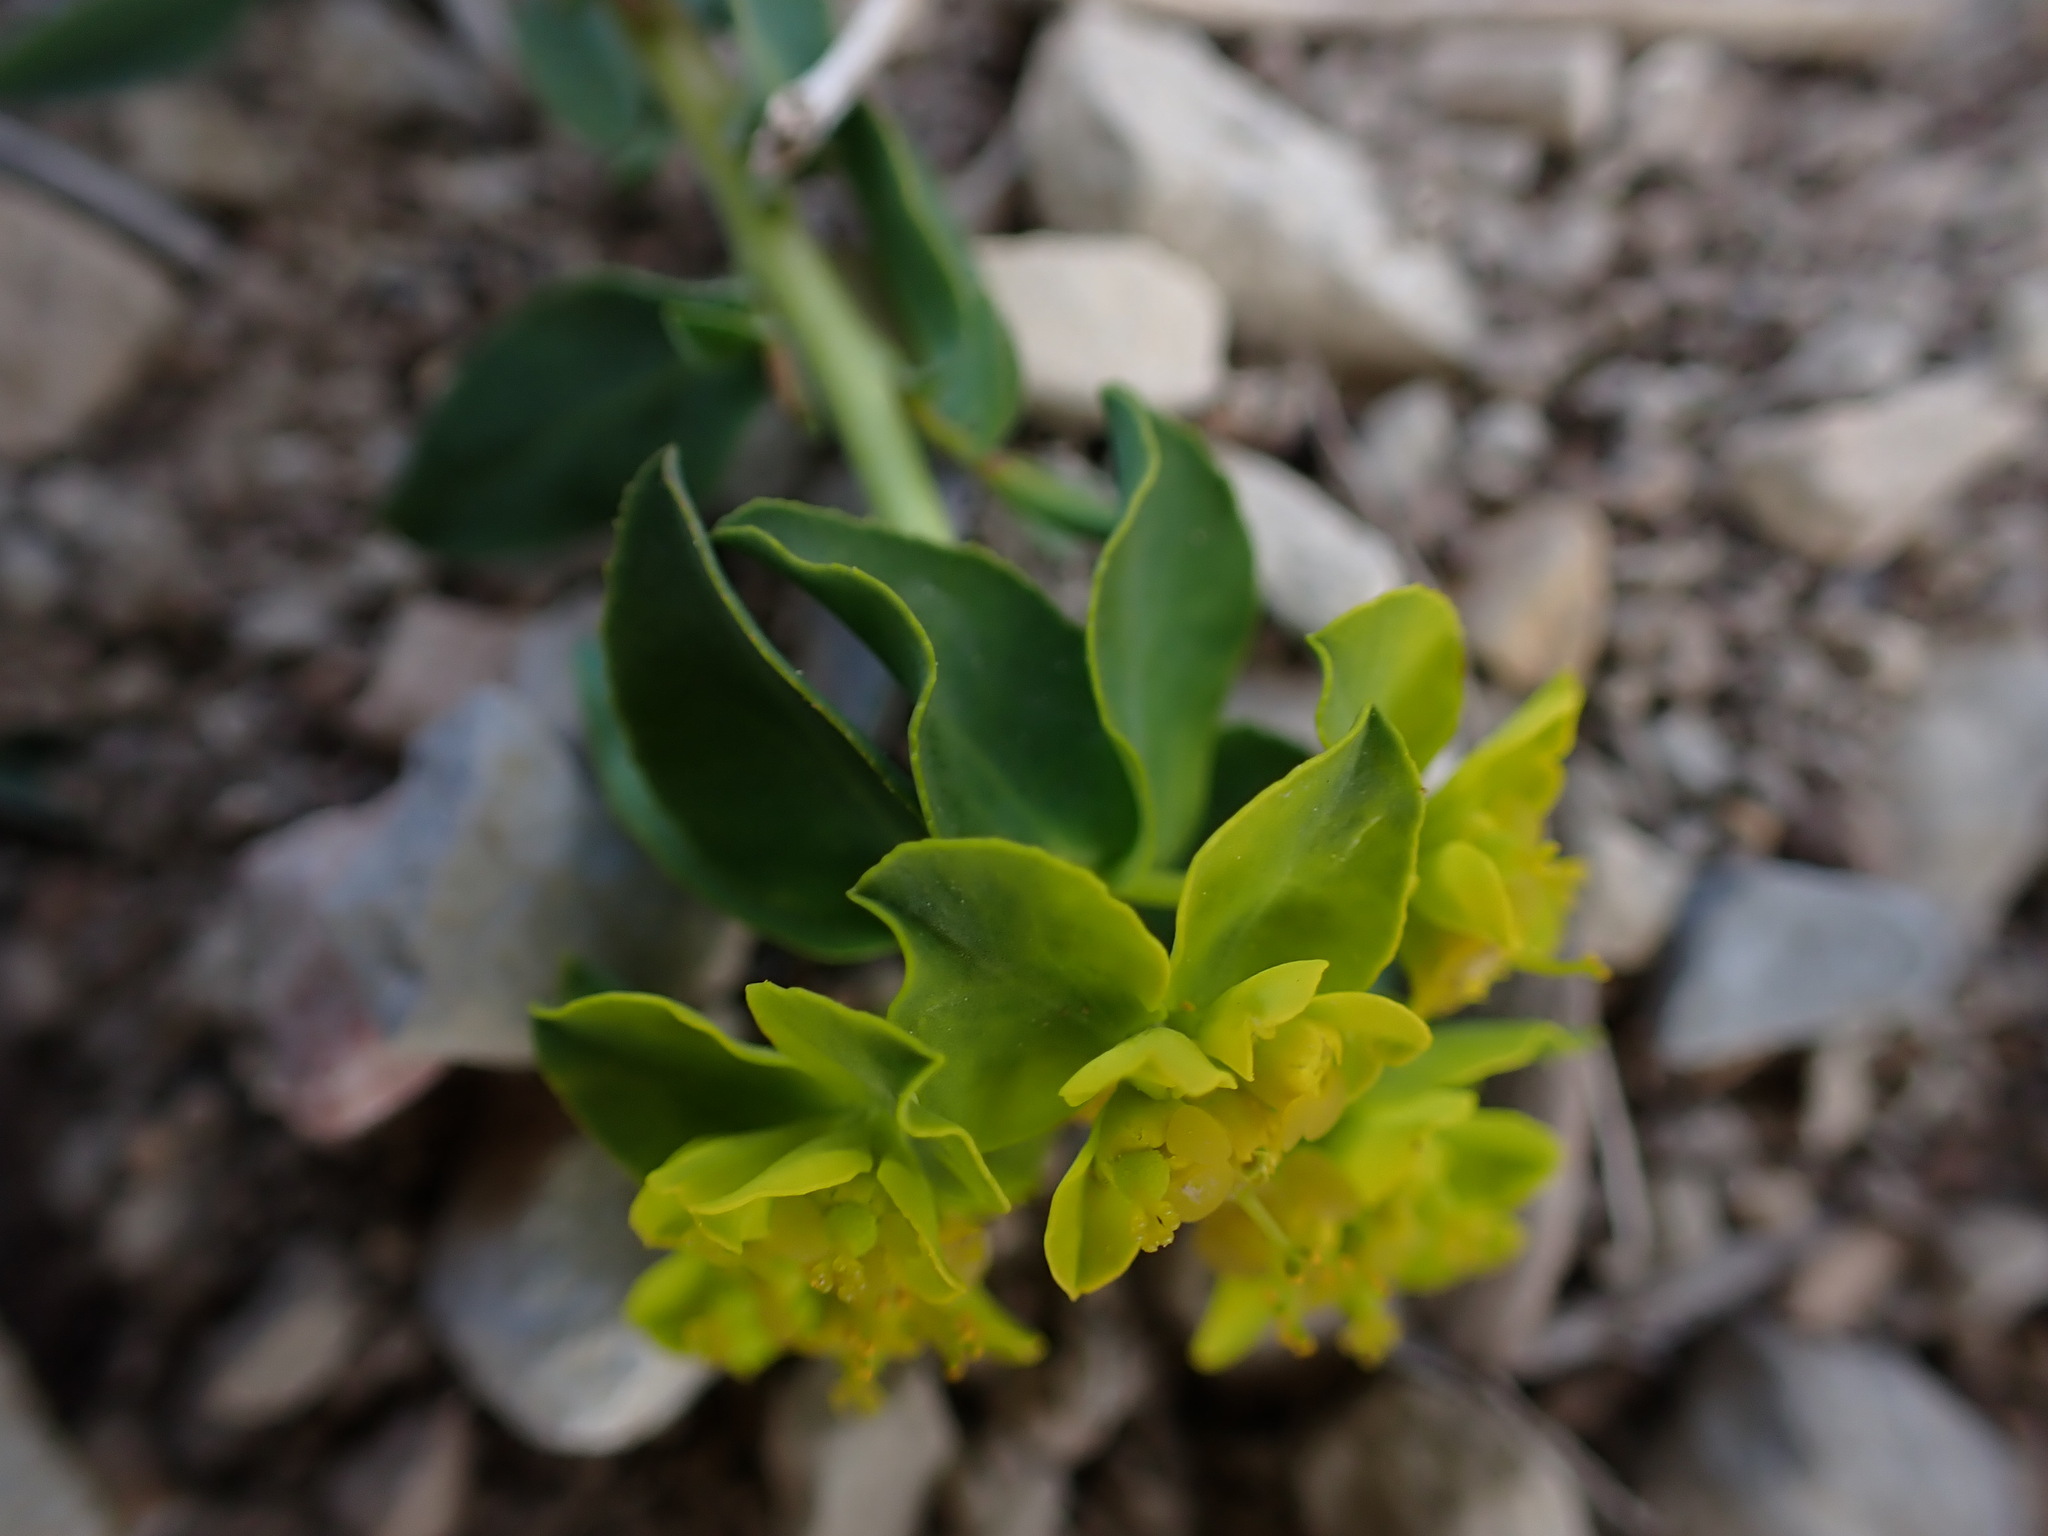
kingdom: Plantae
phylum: Tracheophyta
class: Magnoliopsida
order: Malpighiales
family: Euphorbiaceae
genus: Euphorbia
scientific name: Euphorbia flavicoma
